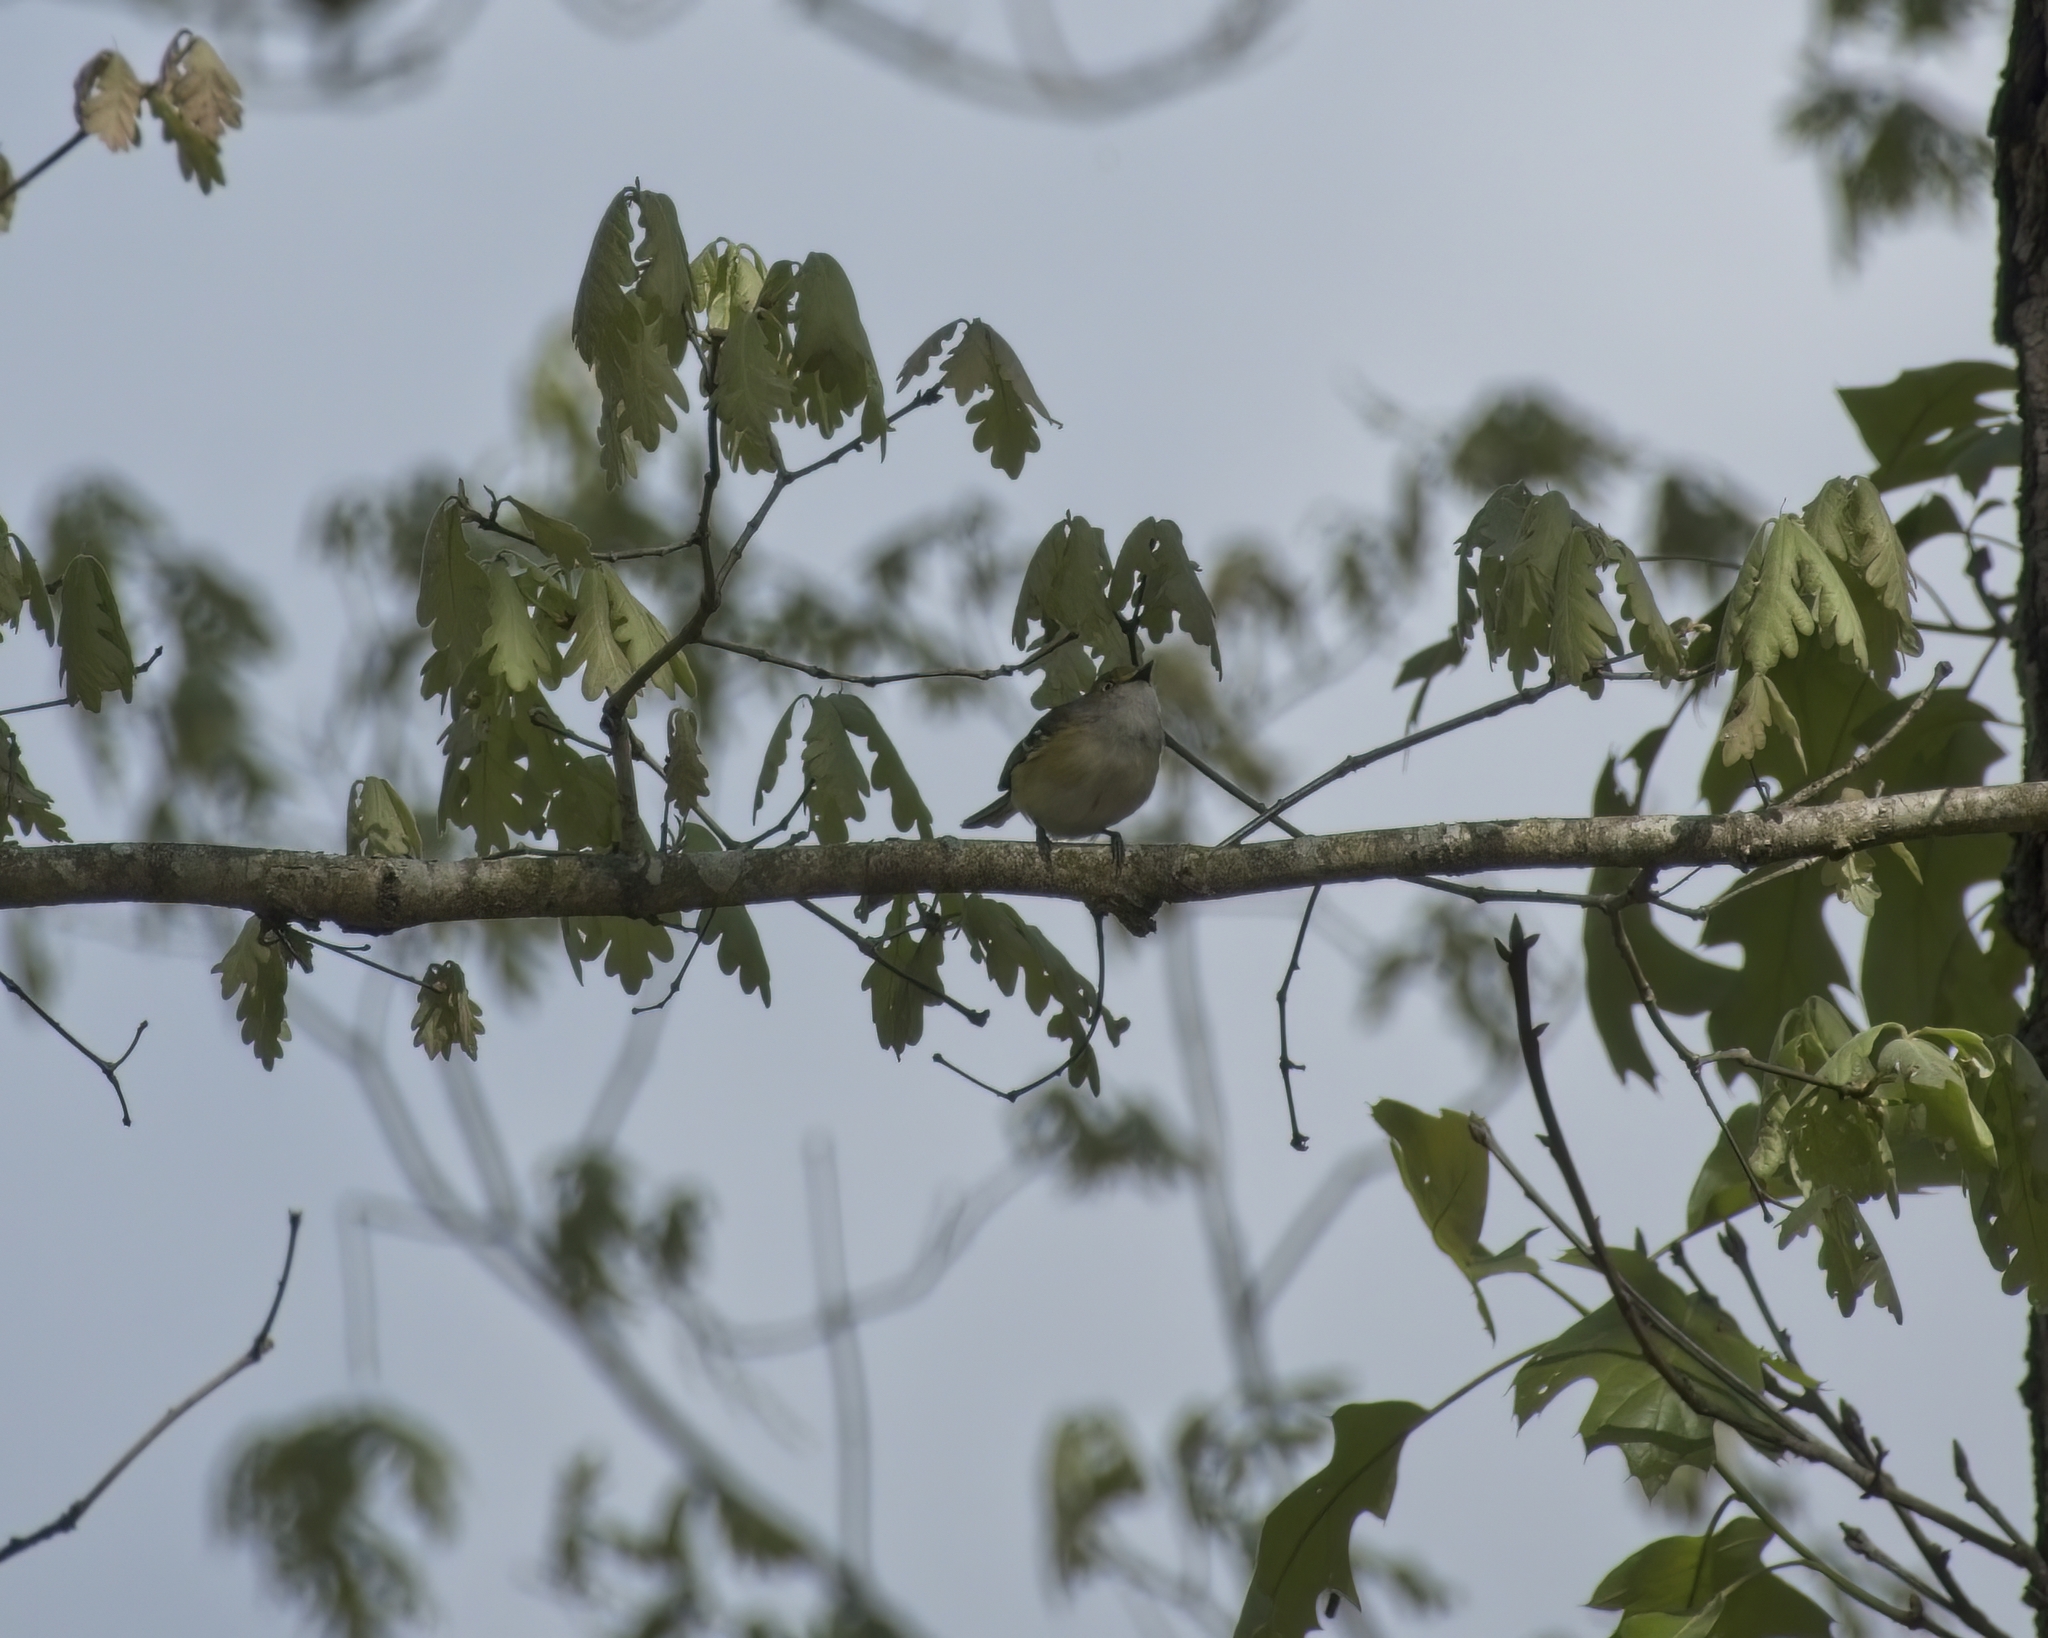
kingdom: Animalia
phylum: Chordata
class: Aves
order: Passeriformes
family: Vireonidae
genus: Vireo
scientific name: Vireo griseus
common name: White-eyed vireo
